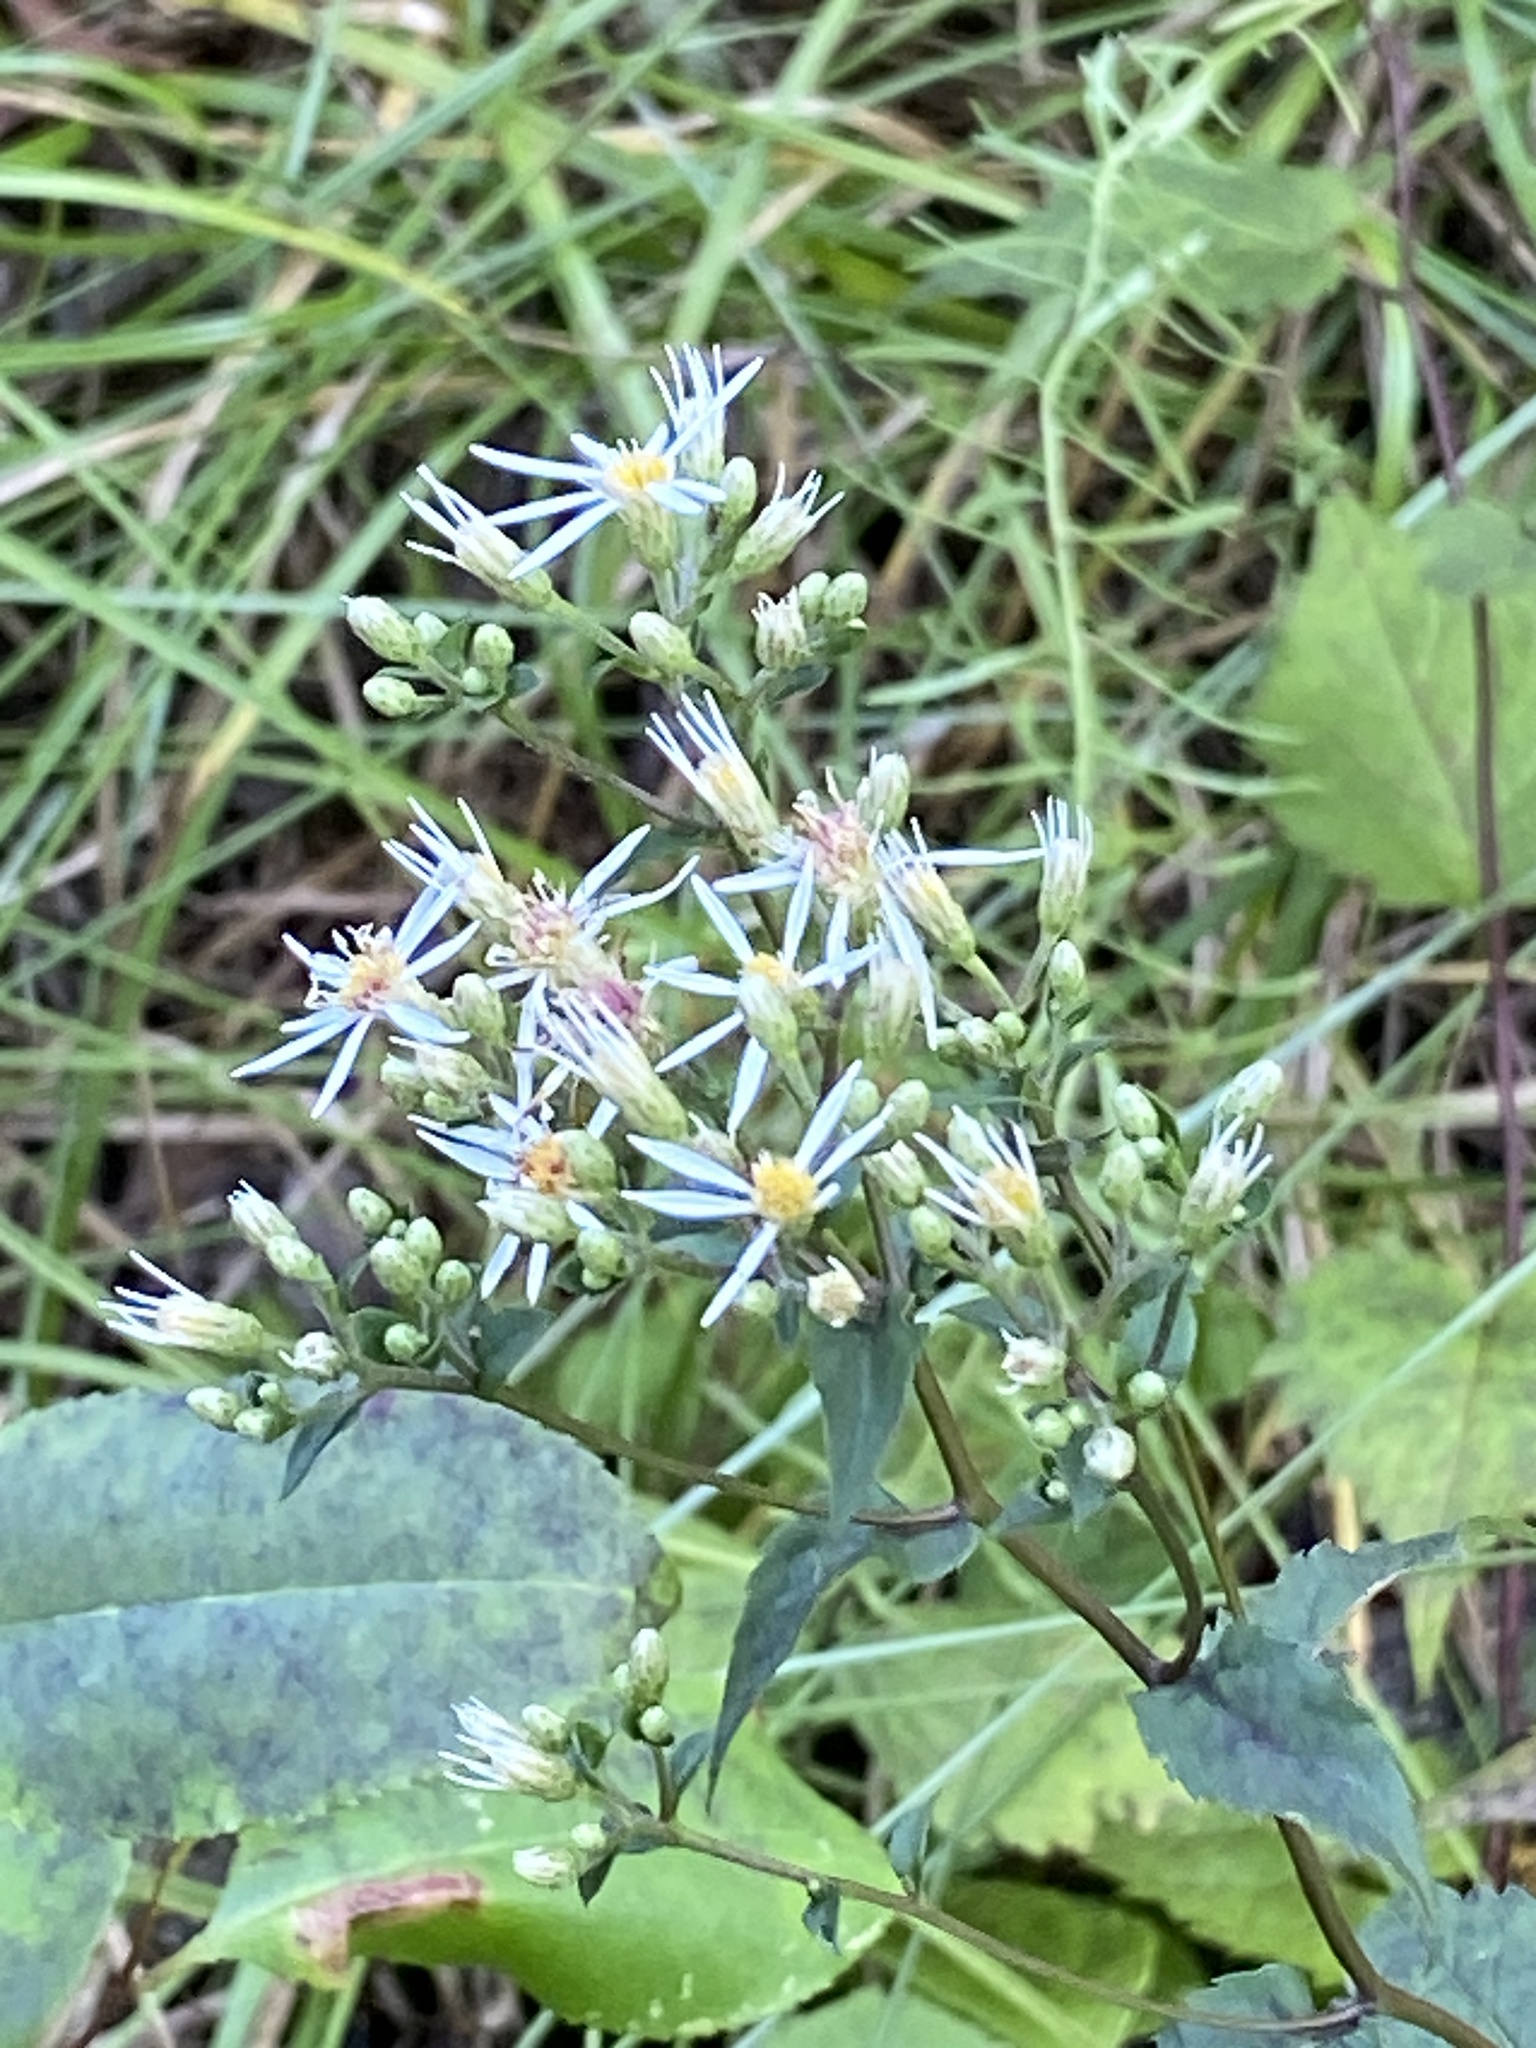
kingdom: Plantae
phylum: Tracheophyta
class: Magnoliopsida
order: Asterales
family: Asteraceae
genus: Eurybia
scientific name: Eurybia divaricata
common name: White wood aster
